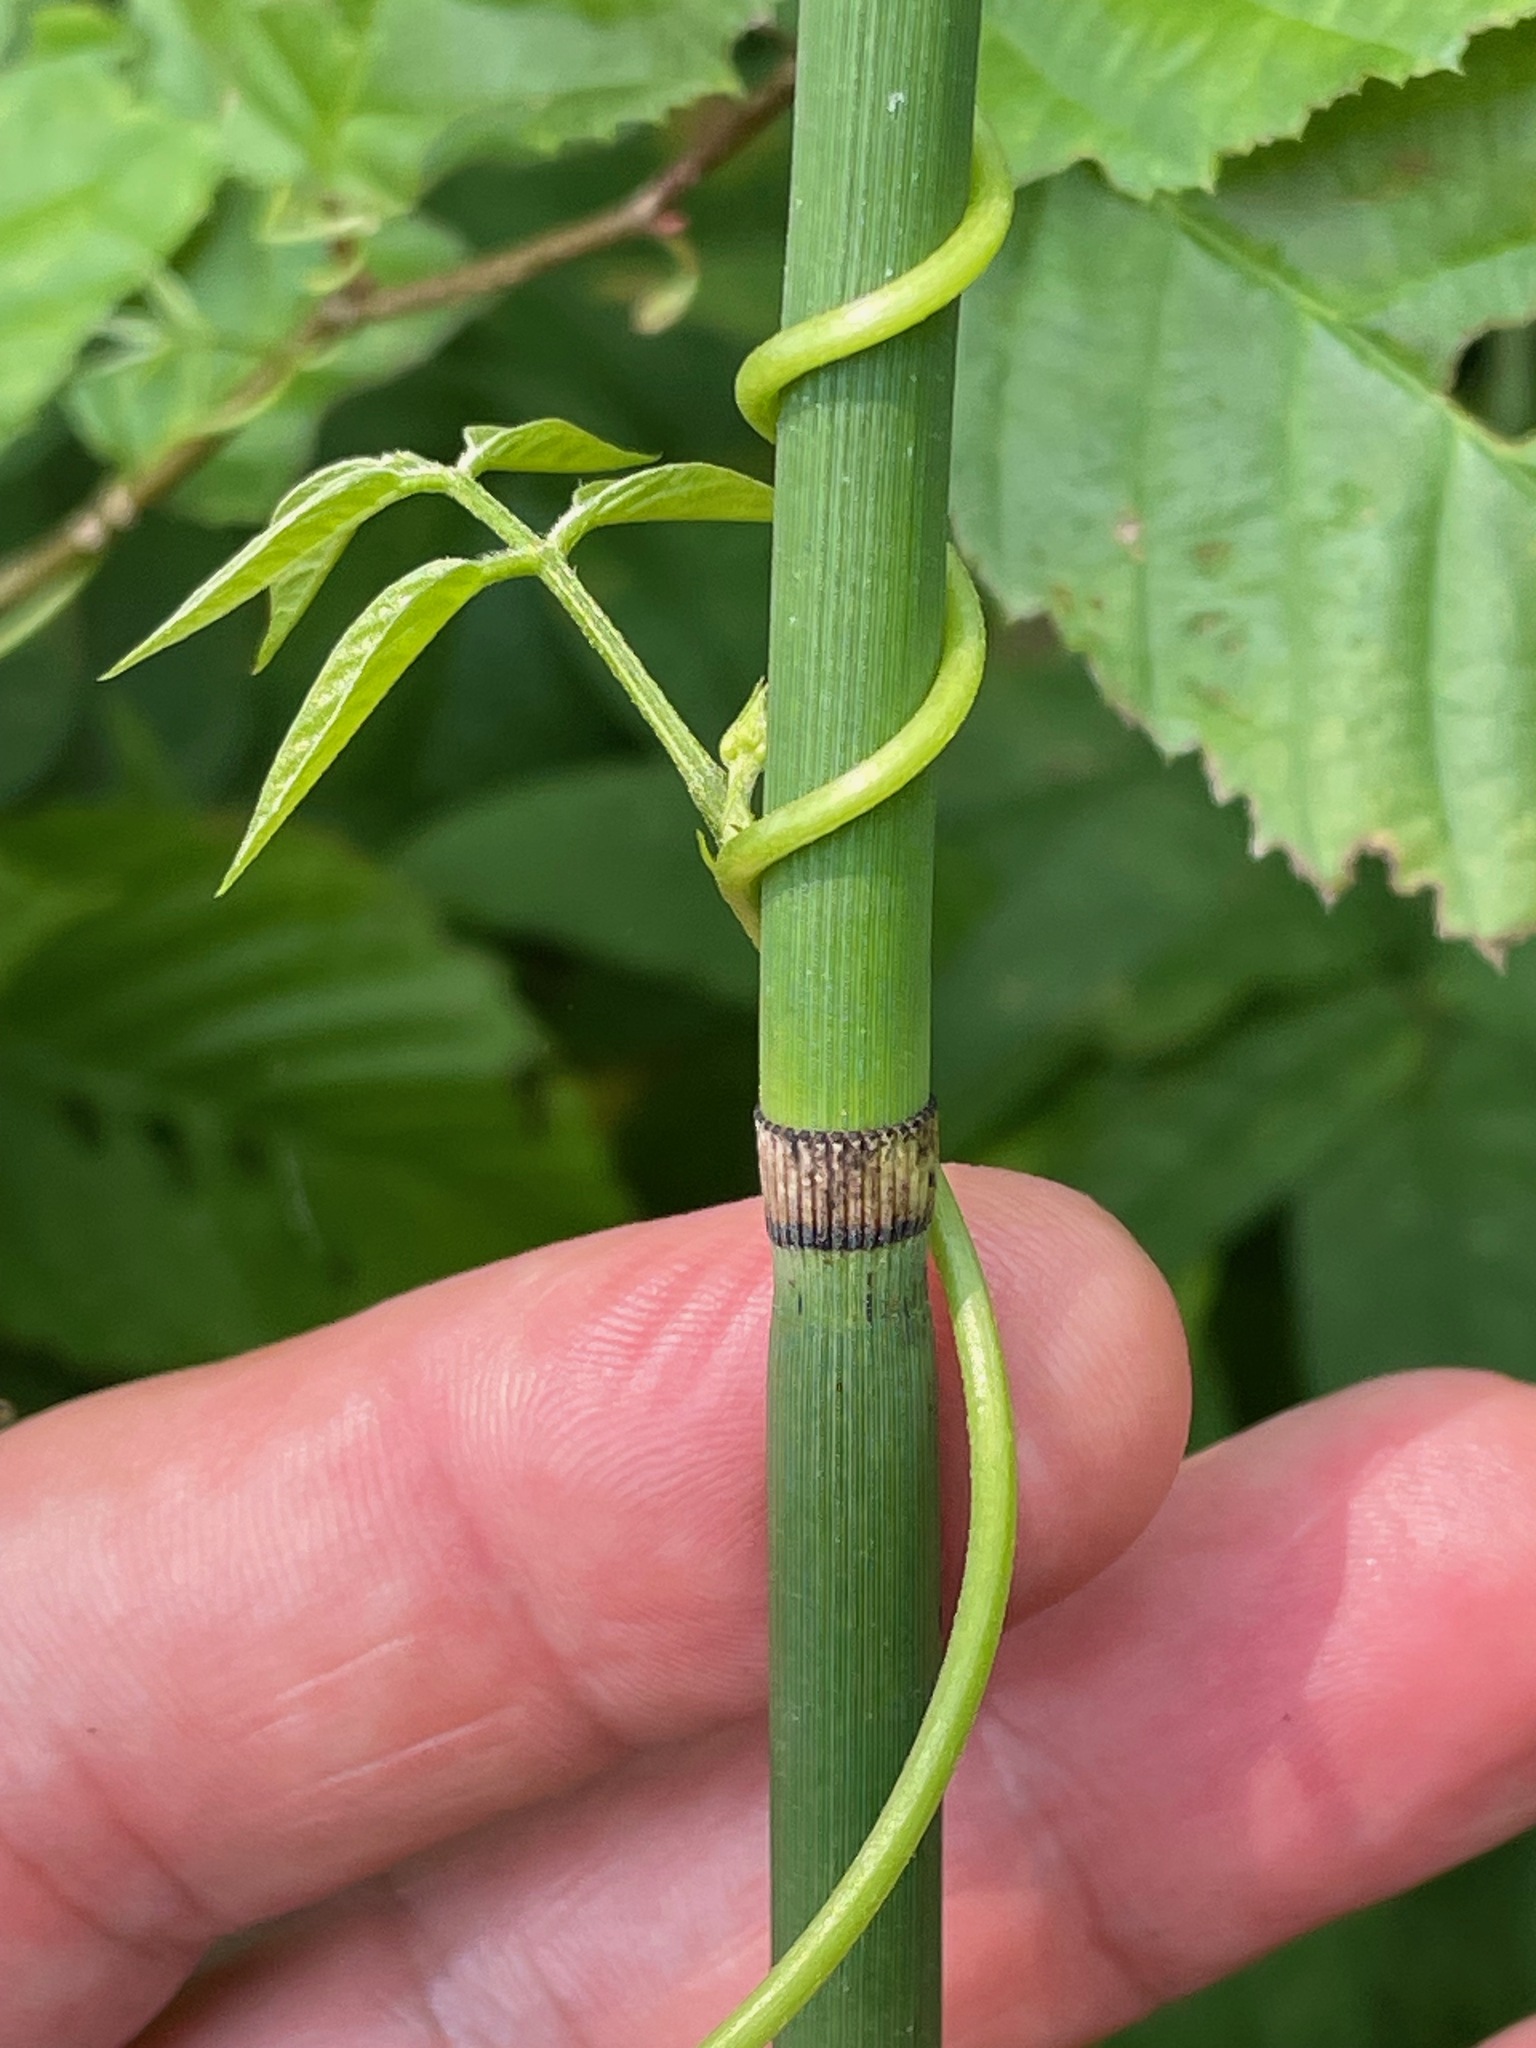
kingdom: Plantae
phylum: Tracheophyta
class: Polypodiopsida
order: Equisetales
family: Equisetaceae
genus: Equisetum
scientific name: Equisetum hyemale
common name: Rough horsetail
